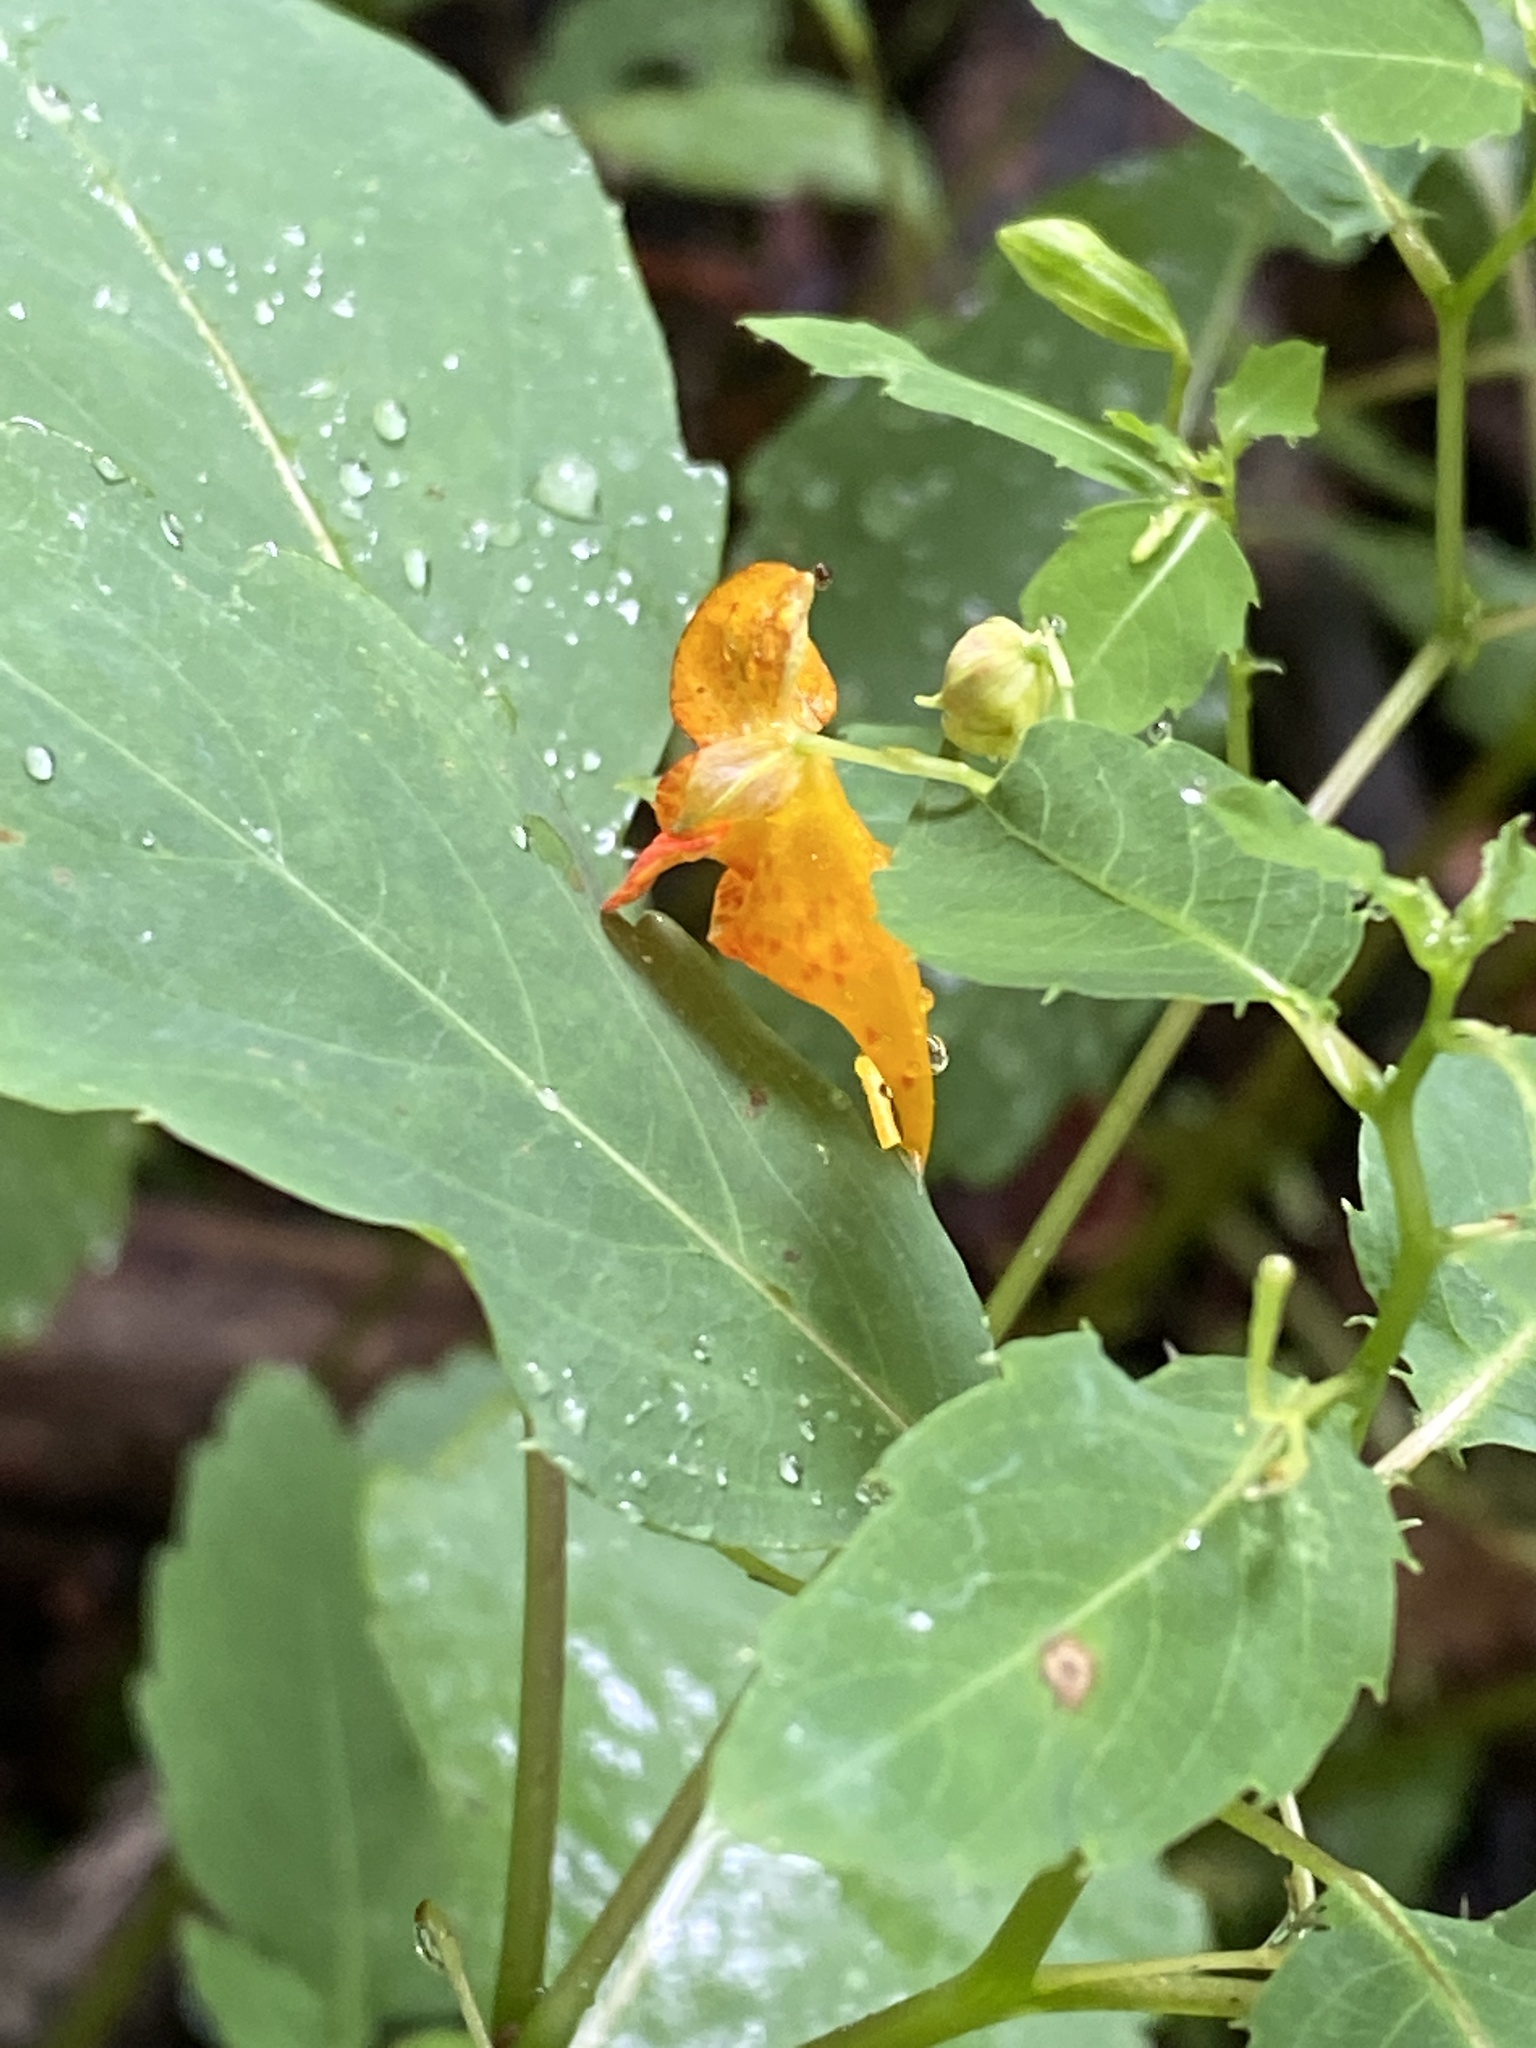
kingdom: Plantae
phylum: Tracheophyta
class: Magnoliopsida
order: Ericales
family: Balsaminaceae
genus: Impatiens
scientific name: Impatiens capensis
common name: Orange balsam
